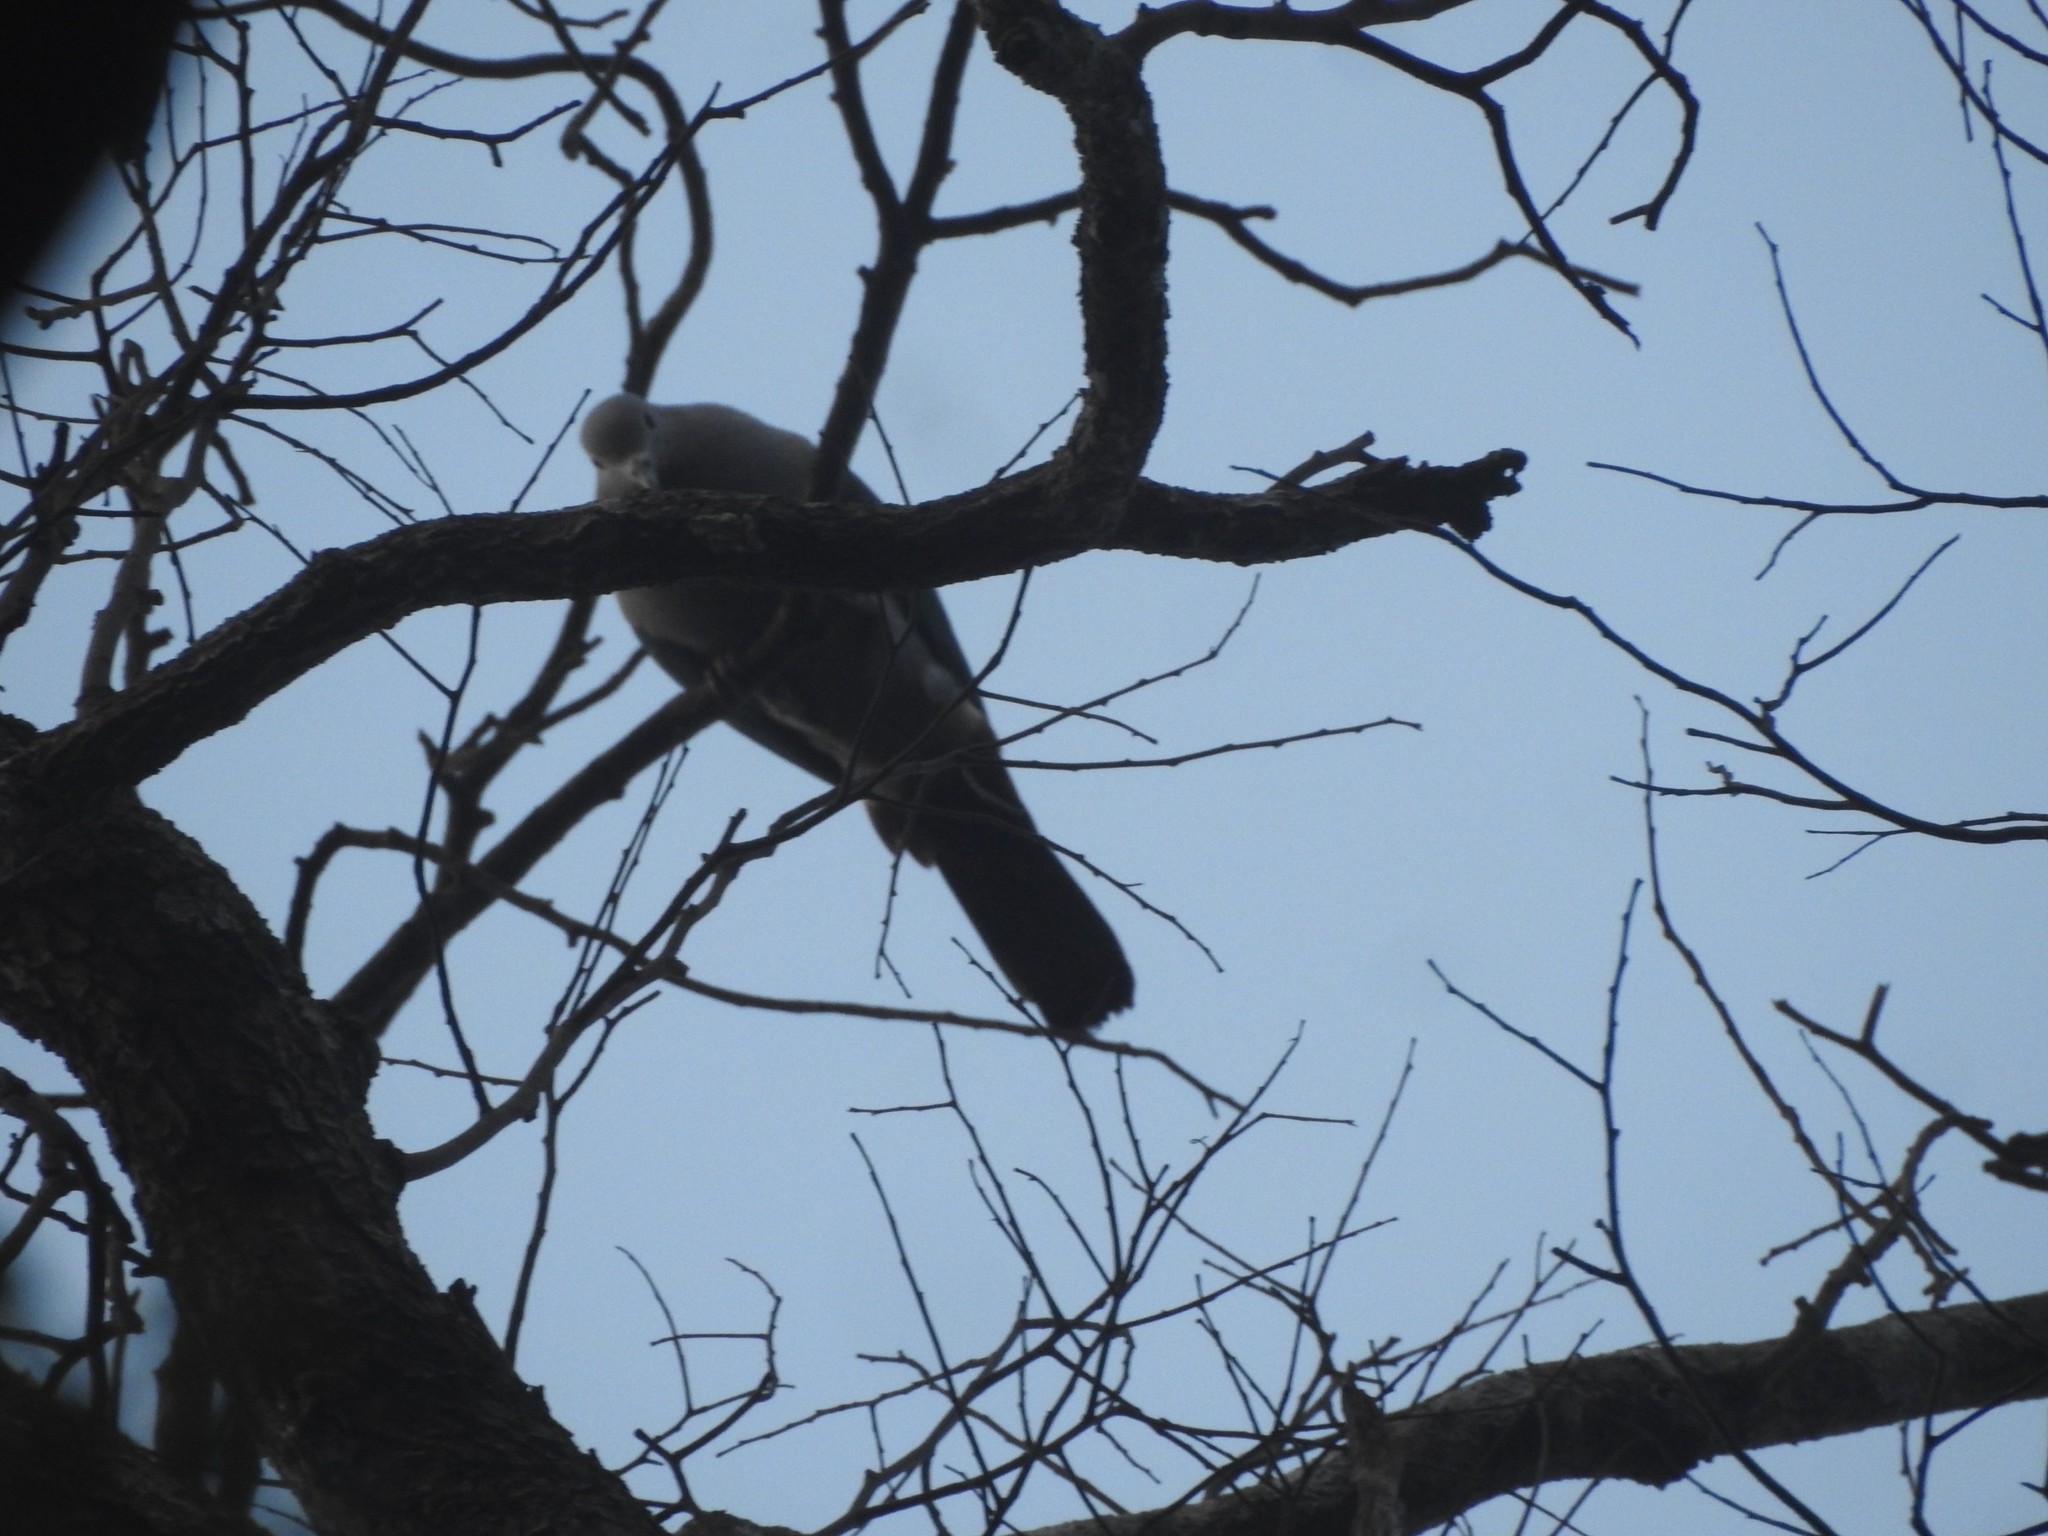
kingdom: Animalia
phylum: Chordata
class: Aves
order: Columbiformes
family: Columbidae
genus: Ducula
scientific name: Ducula aenea
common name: Green imperial pigeon
